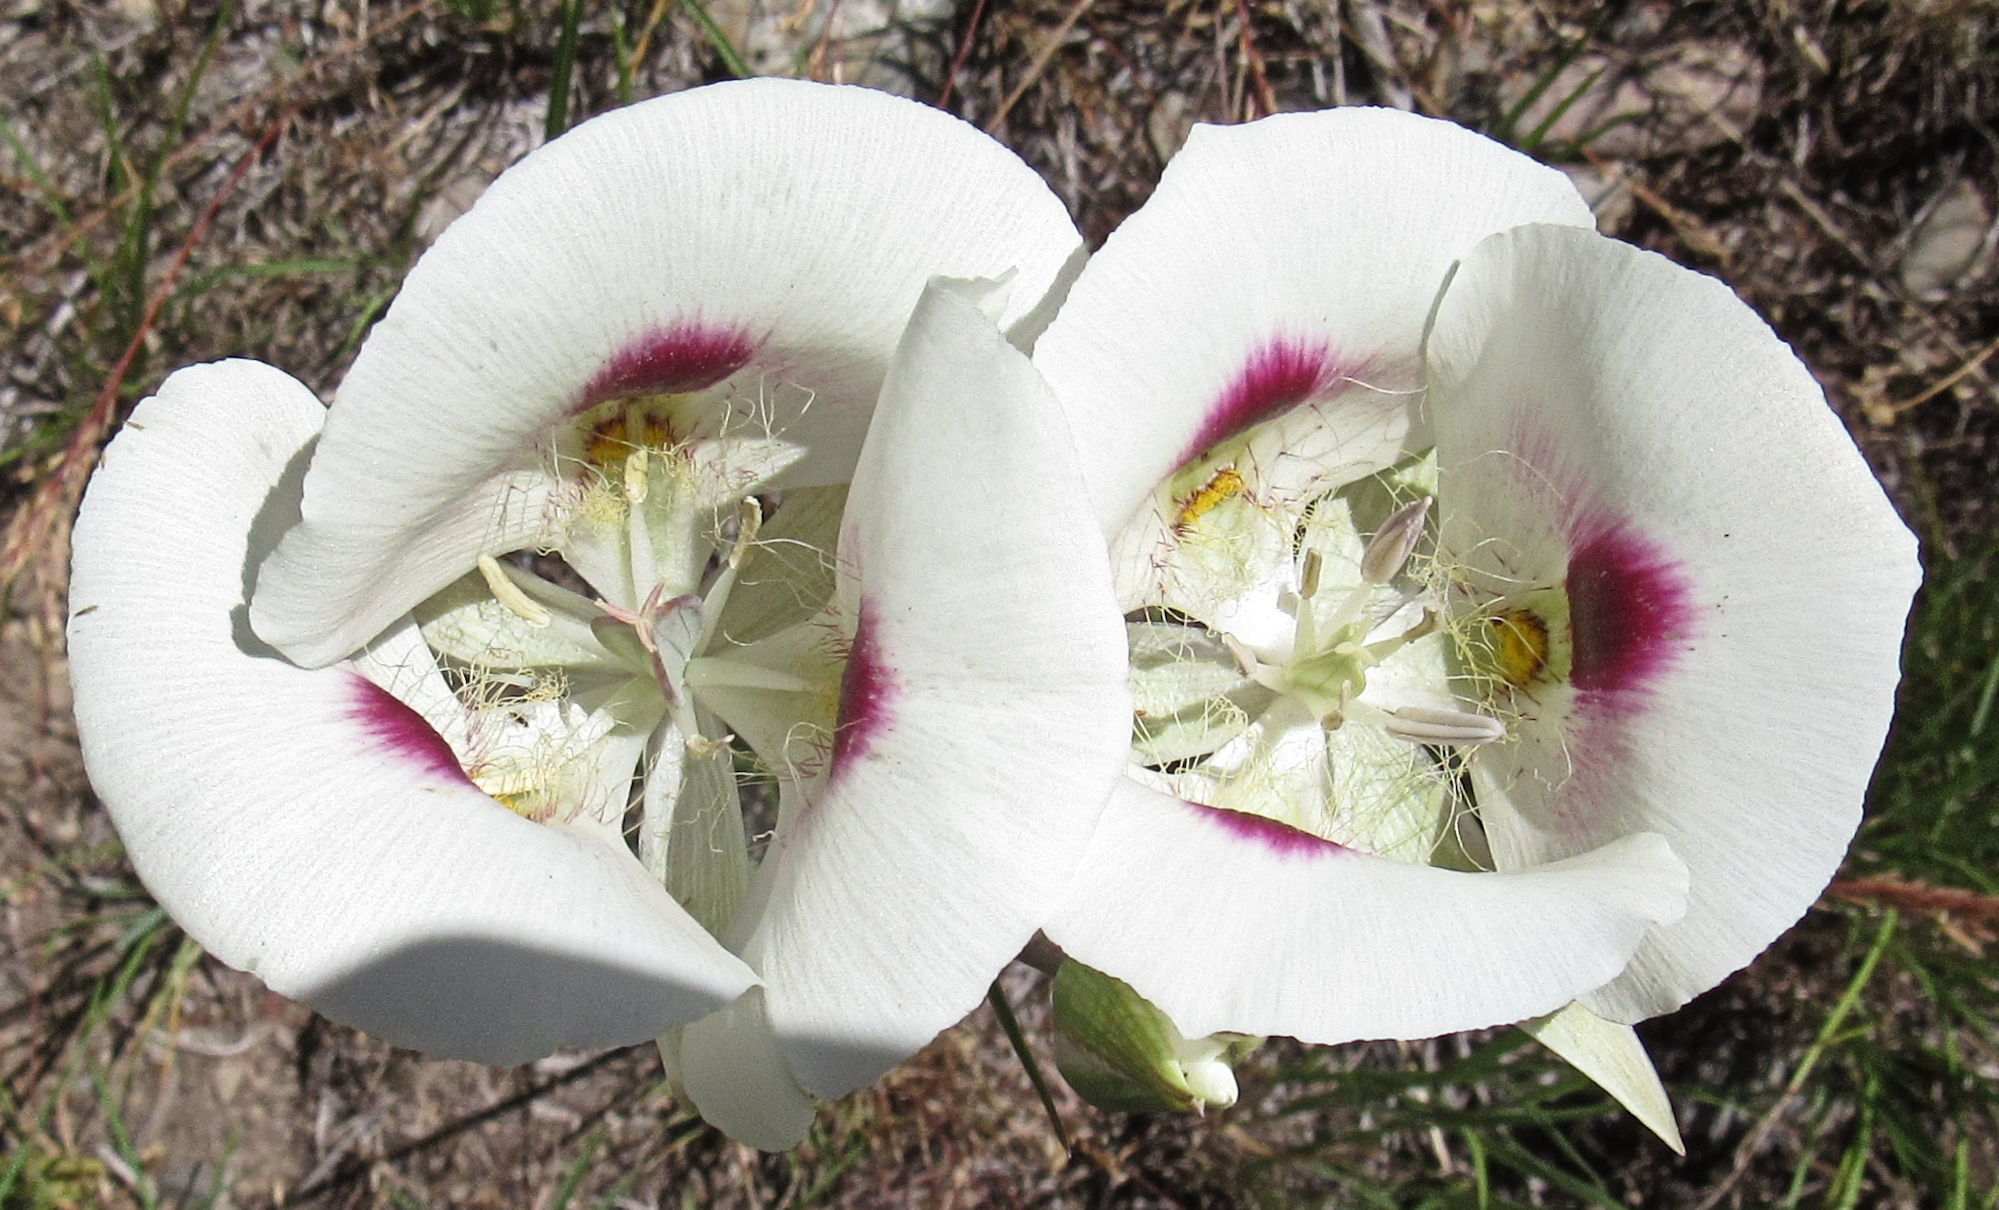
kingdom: Plantae
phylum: Tracheophyta
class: Liliopsida
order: Liliales
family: Liliaceae
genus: Calochortus
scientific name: Calochortus eurycarpus
